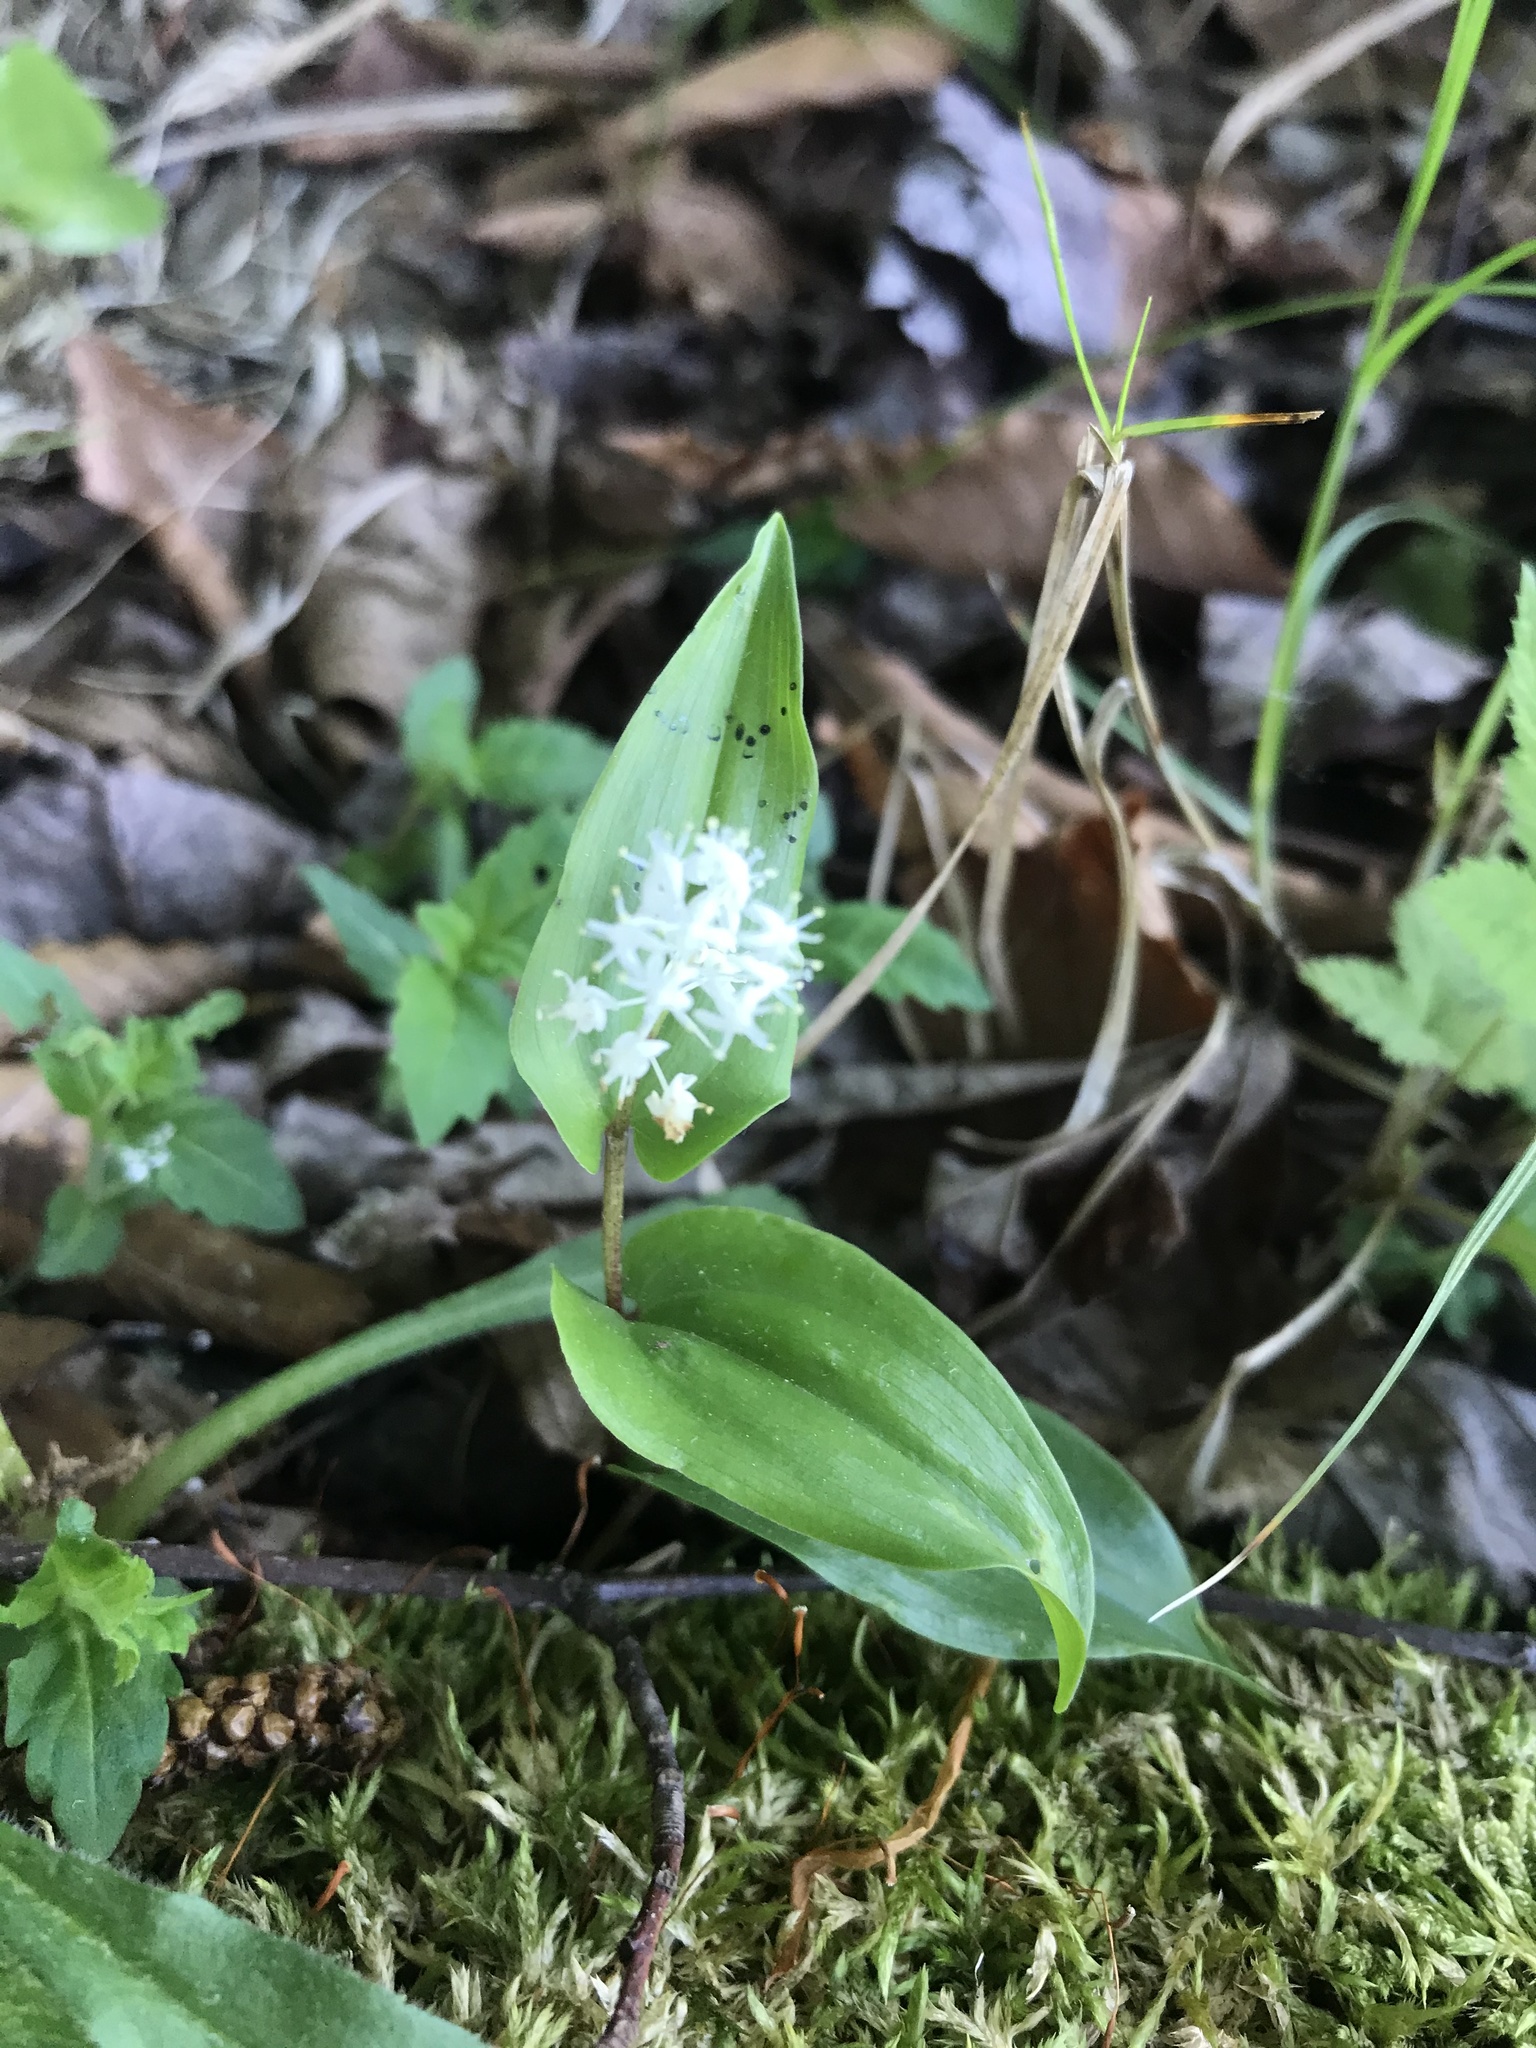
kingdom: Plantae
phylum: Tracheophyta
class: Liliopsida
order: Asparagales
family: Asparagaceae
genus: Maianthemum
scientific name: Maianthemum canadense
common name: False lily-of-the-valley
